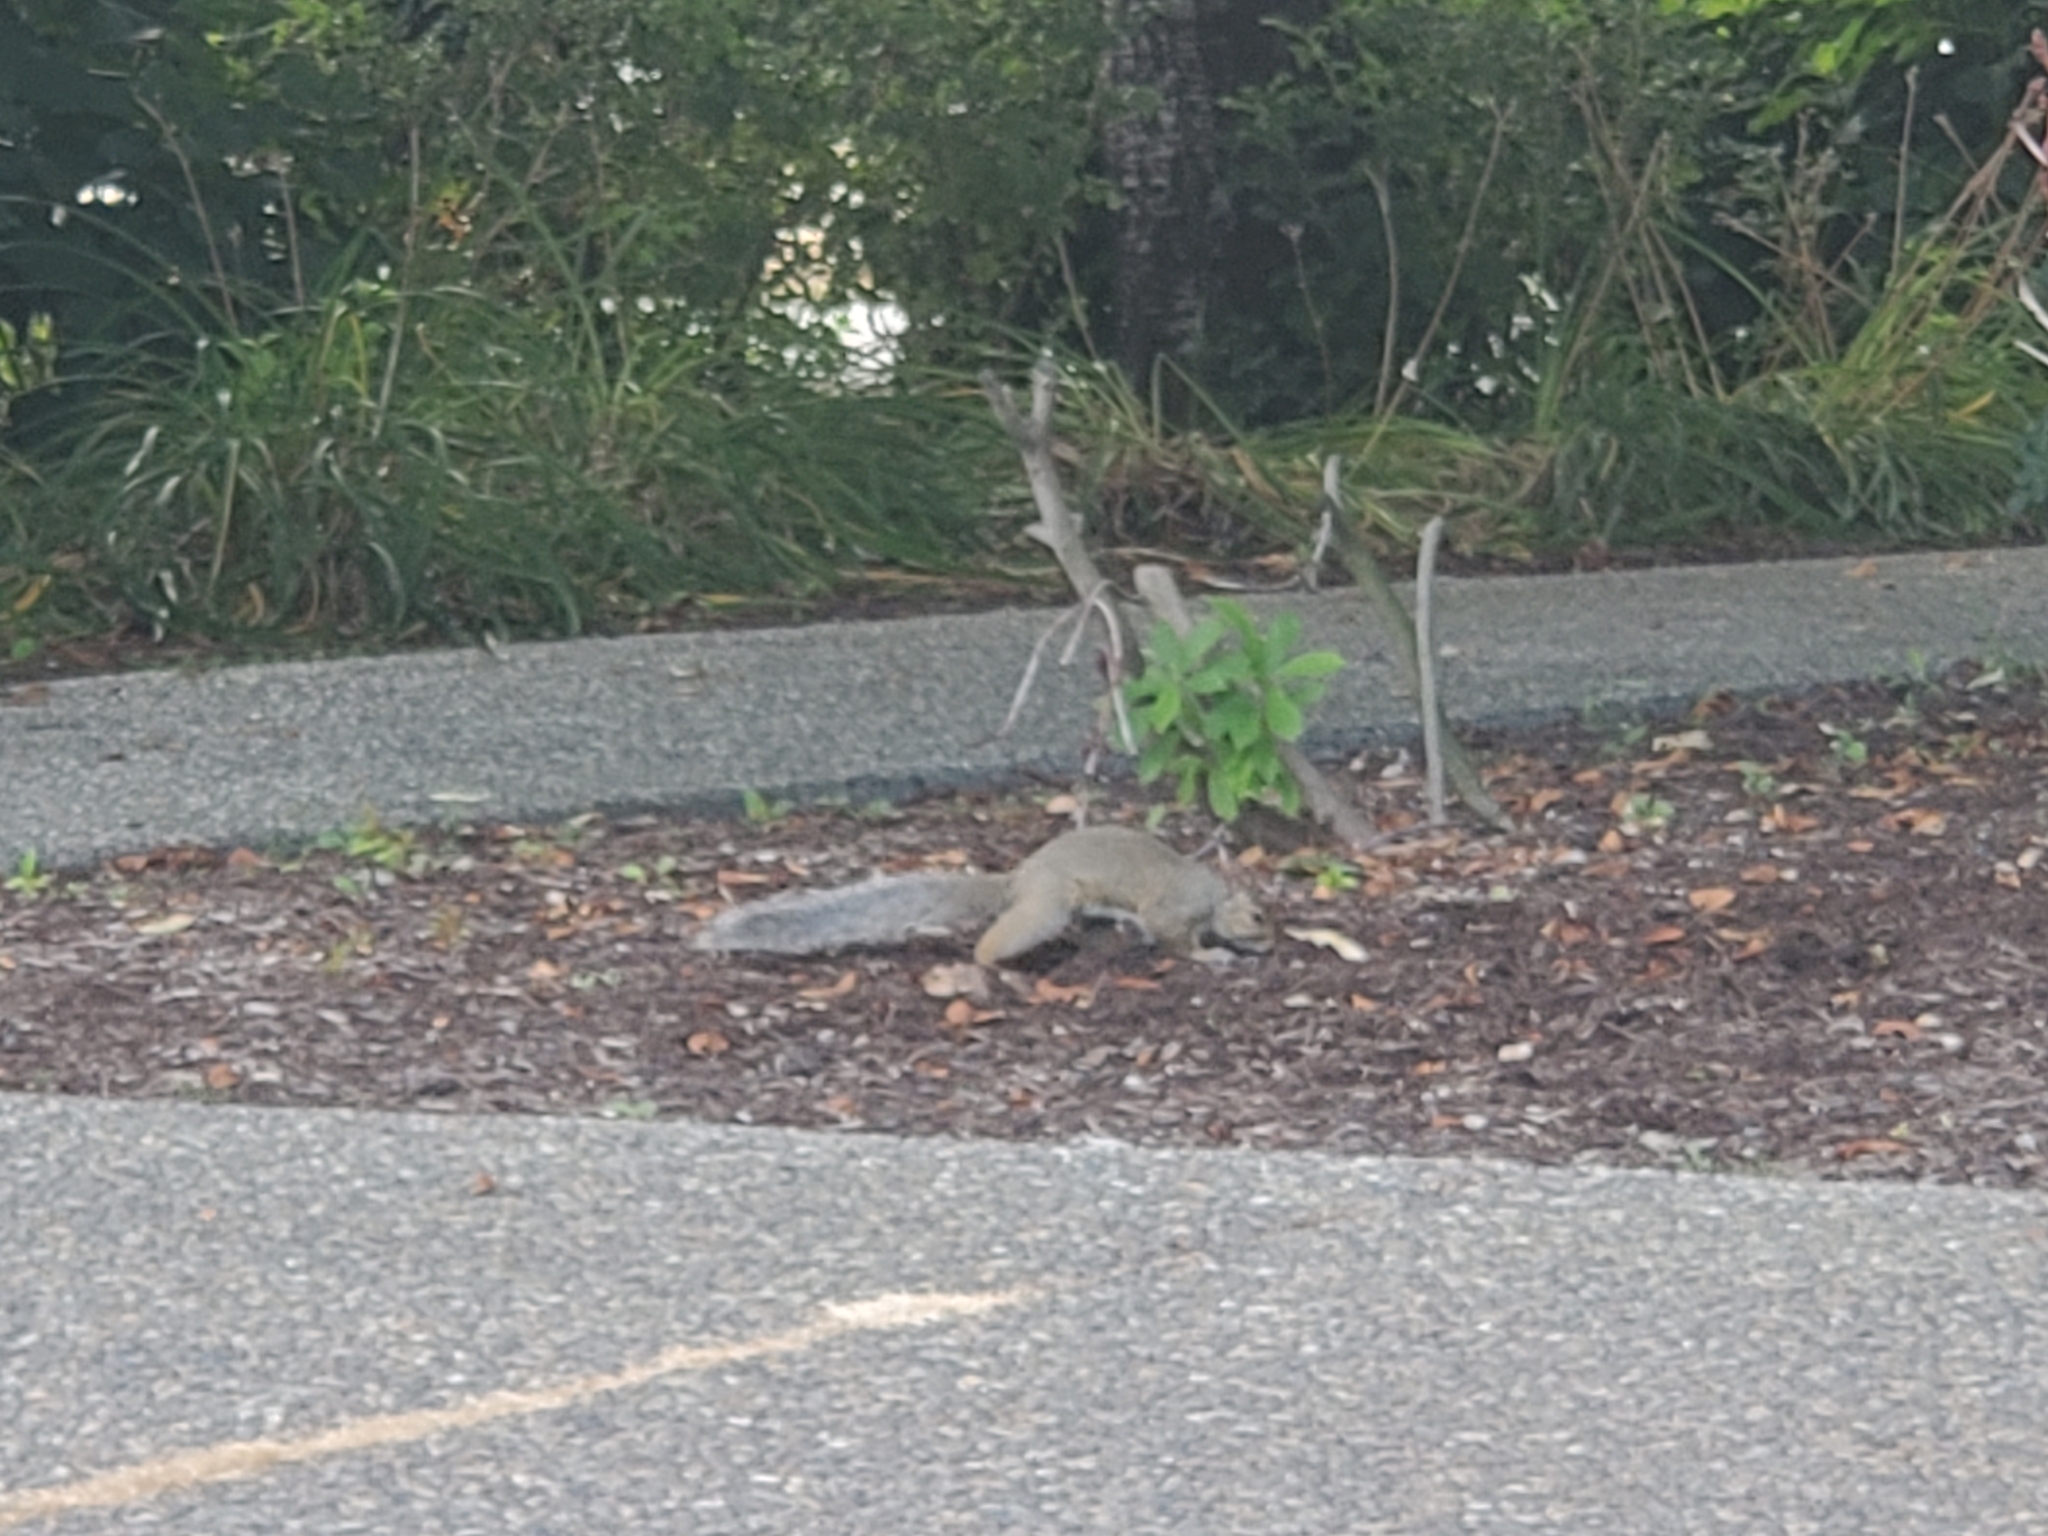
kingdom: Animalia
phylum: Chordata
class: Mammalia
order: Rodentia
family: Sciuridae
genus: Sciurus
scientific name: Sciurus carolinensis
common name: Eastern gray squirrel
